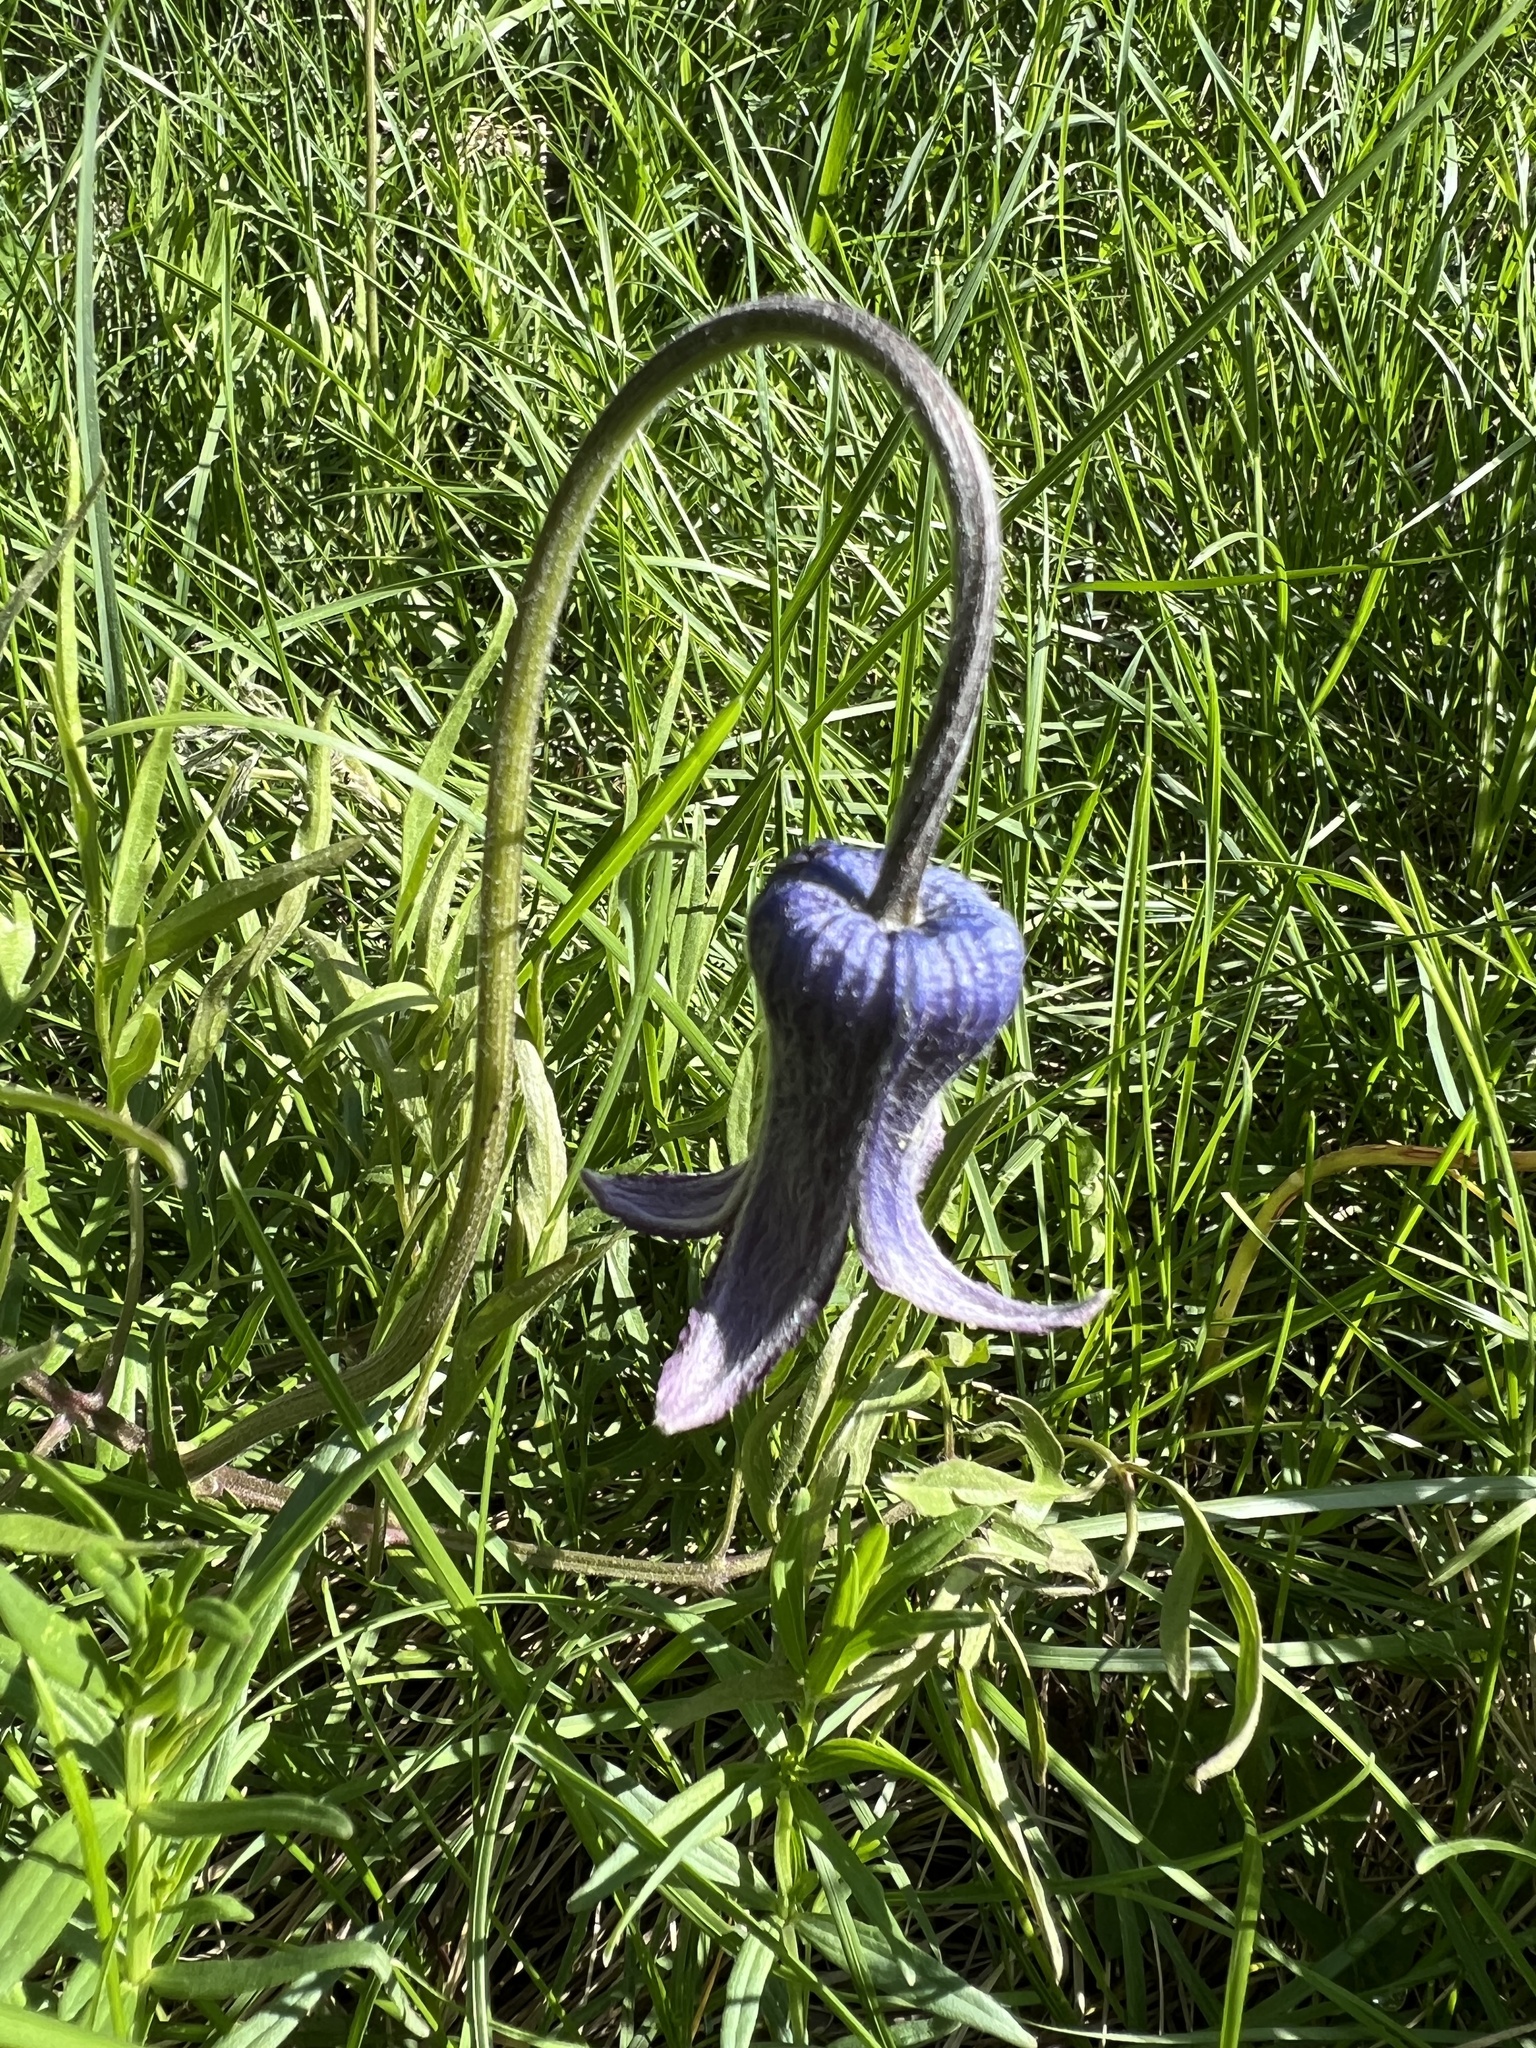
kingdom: Plantae
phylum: Tracheophyta
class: Magnoliopsida
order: Ranunculales
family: Ranunculaceae
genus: Clematis
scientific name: Clematis hirsutissima
